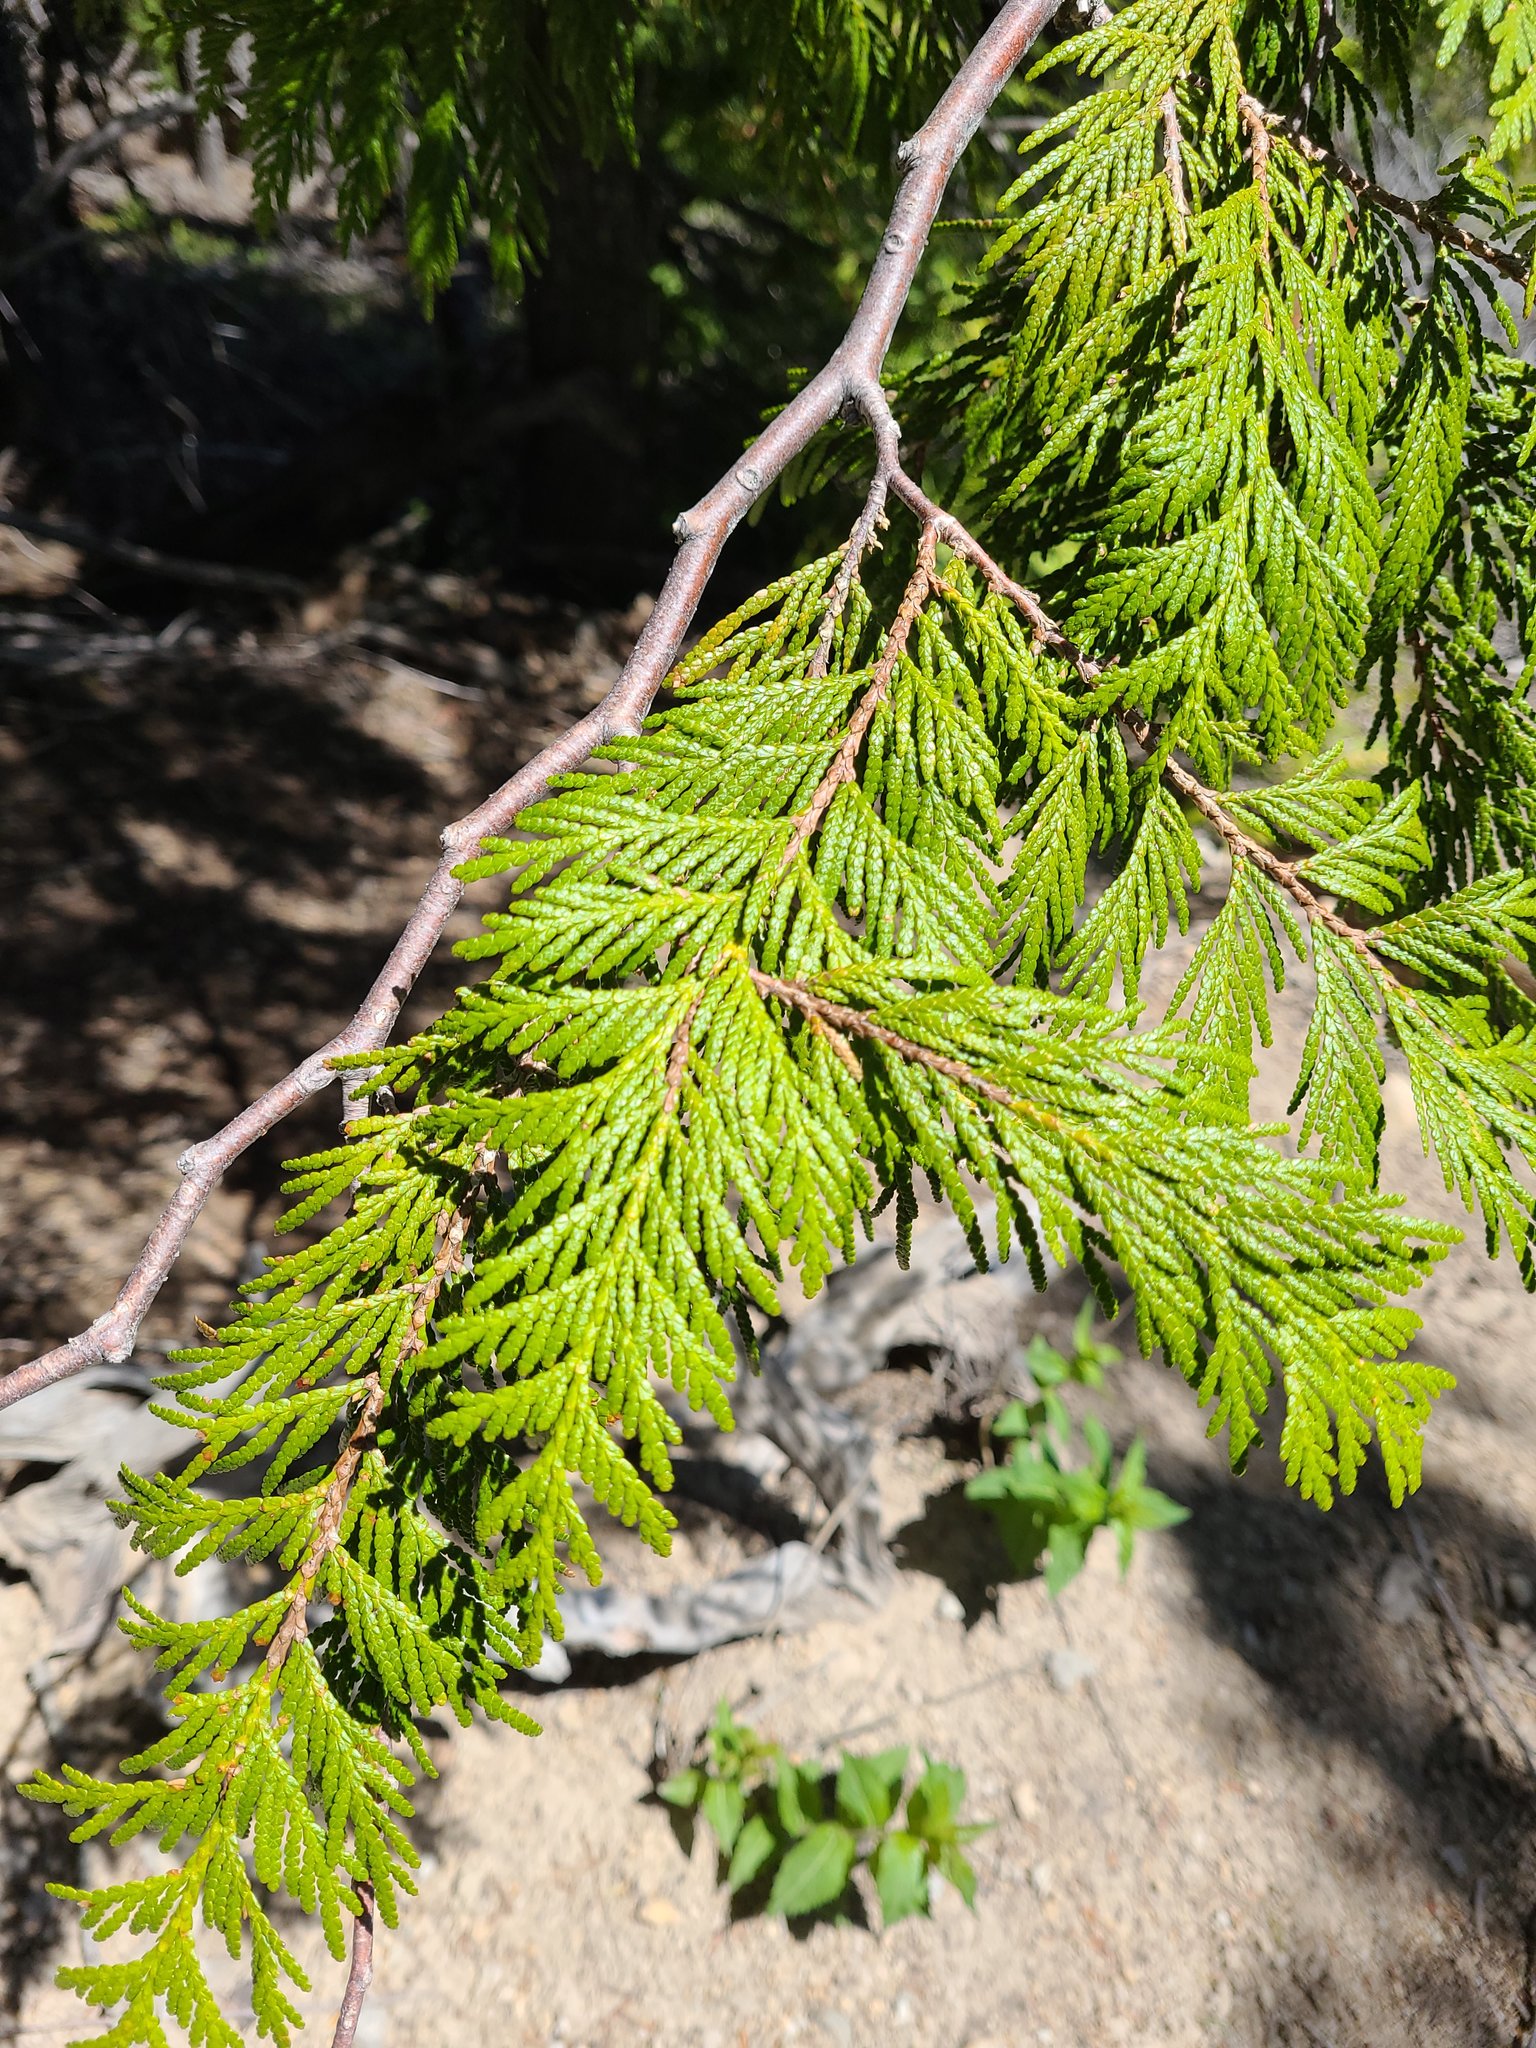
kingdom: Plantae
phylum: Tracheophyta
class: Pinopsida
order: Pinales
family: Cupressaceae
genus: Thuja
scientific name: Thuja plicata
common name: Western red-cedar
